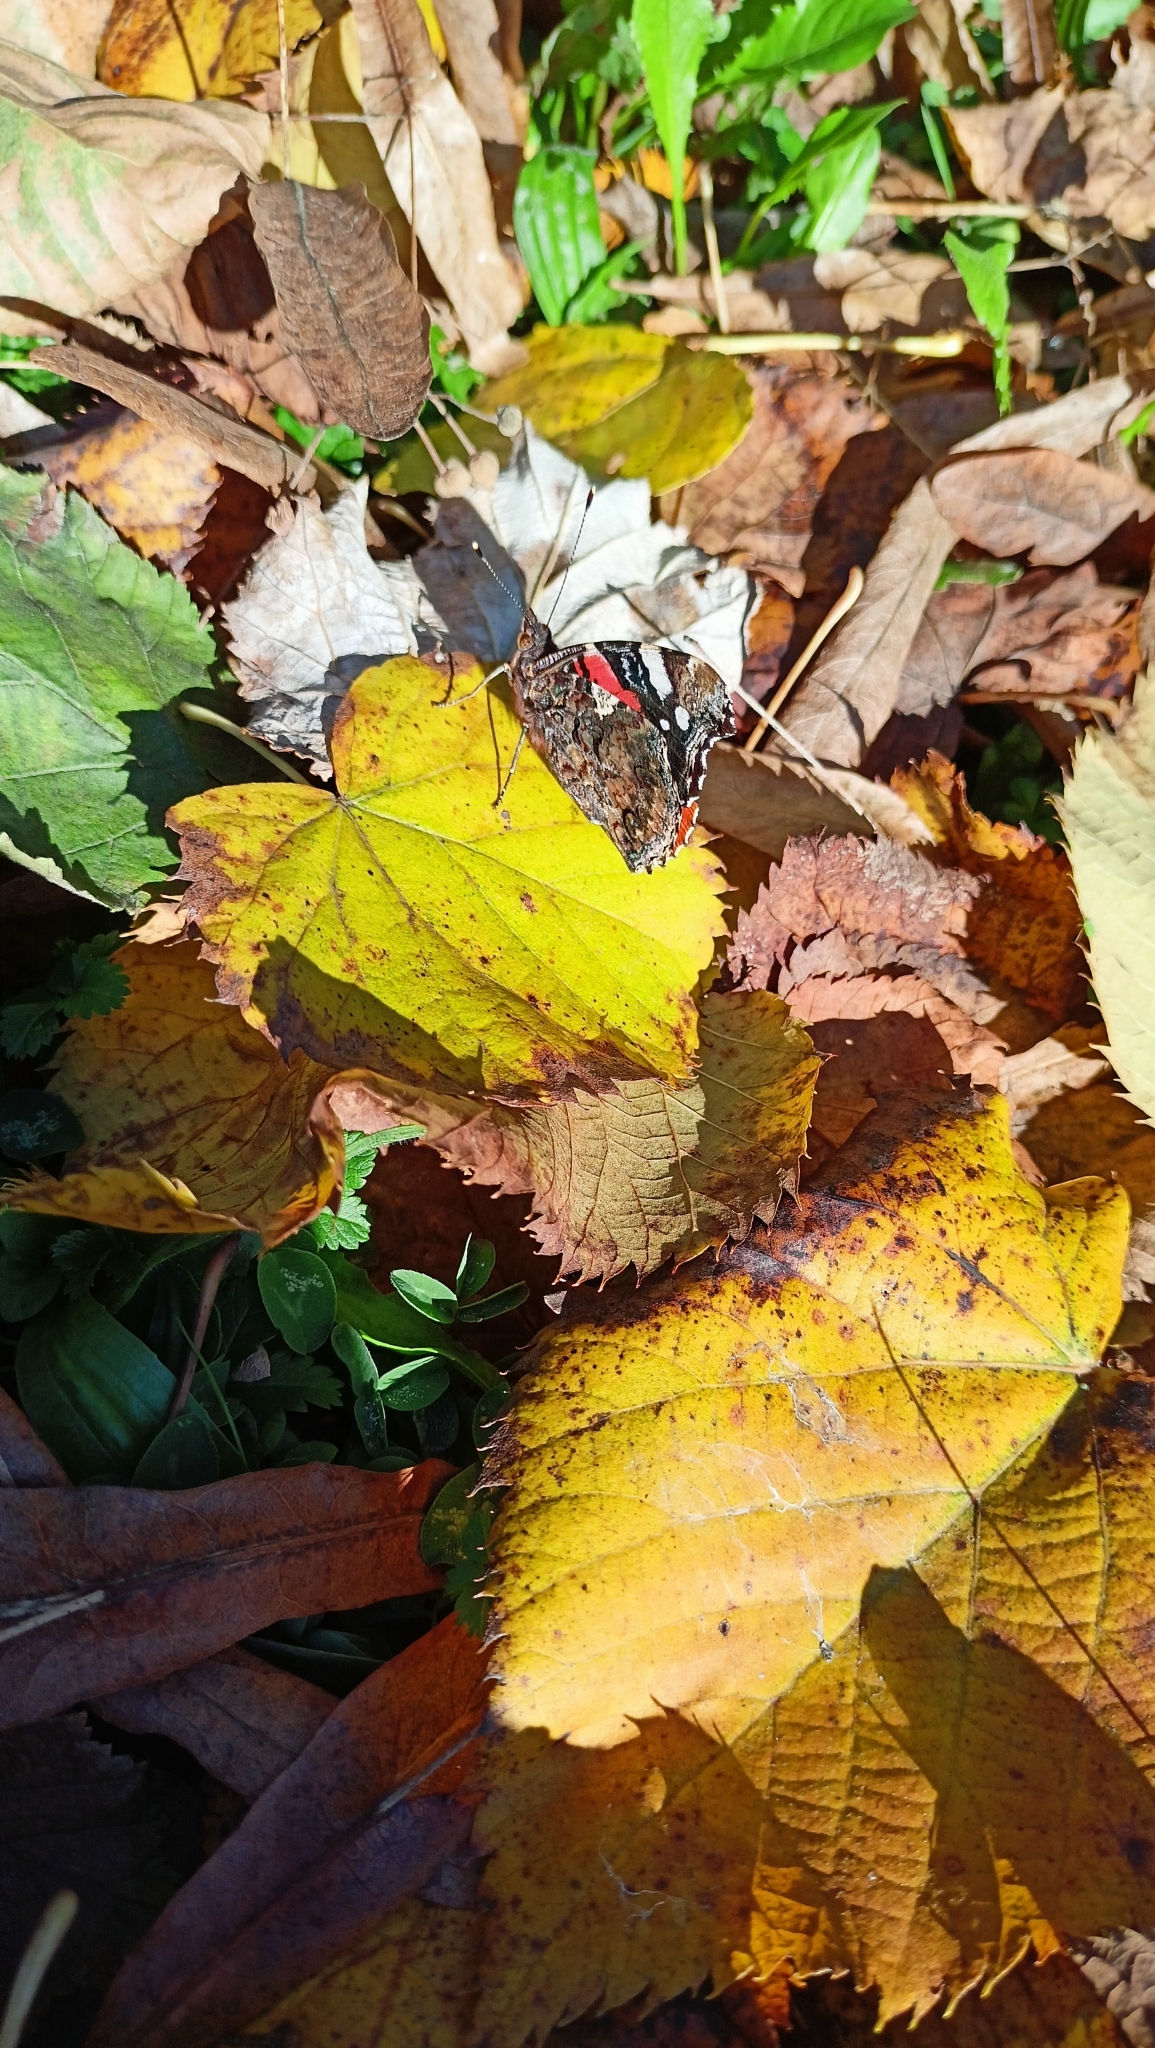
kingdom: Animalia
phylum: Arthropoda
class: Insecta
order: Lepidoptera
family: Nymphalidae
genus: Vanessa
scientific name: Vanessa atalanta
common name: Red admiral
